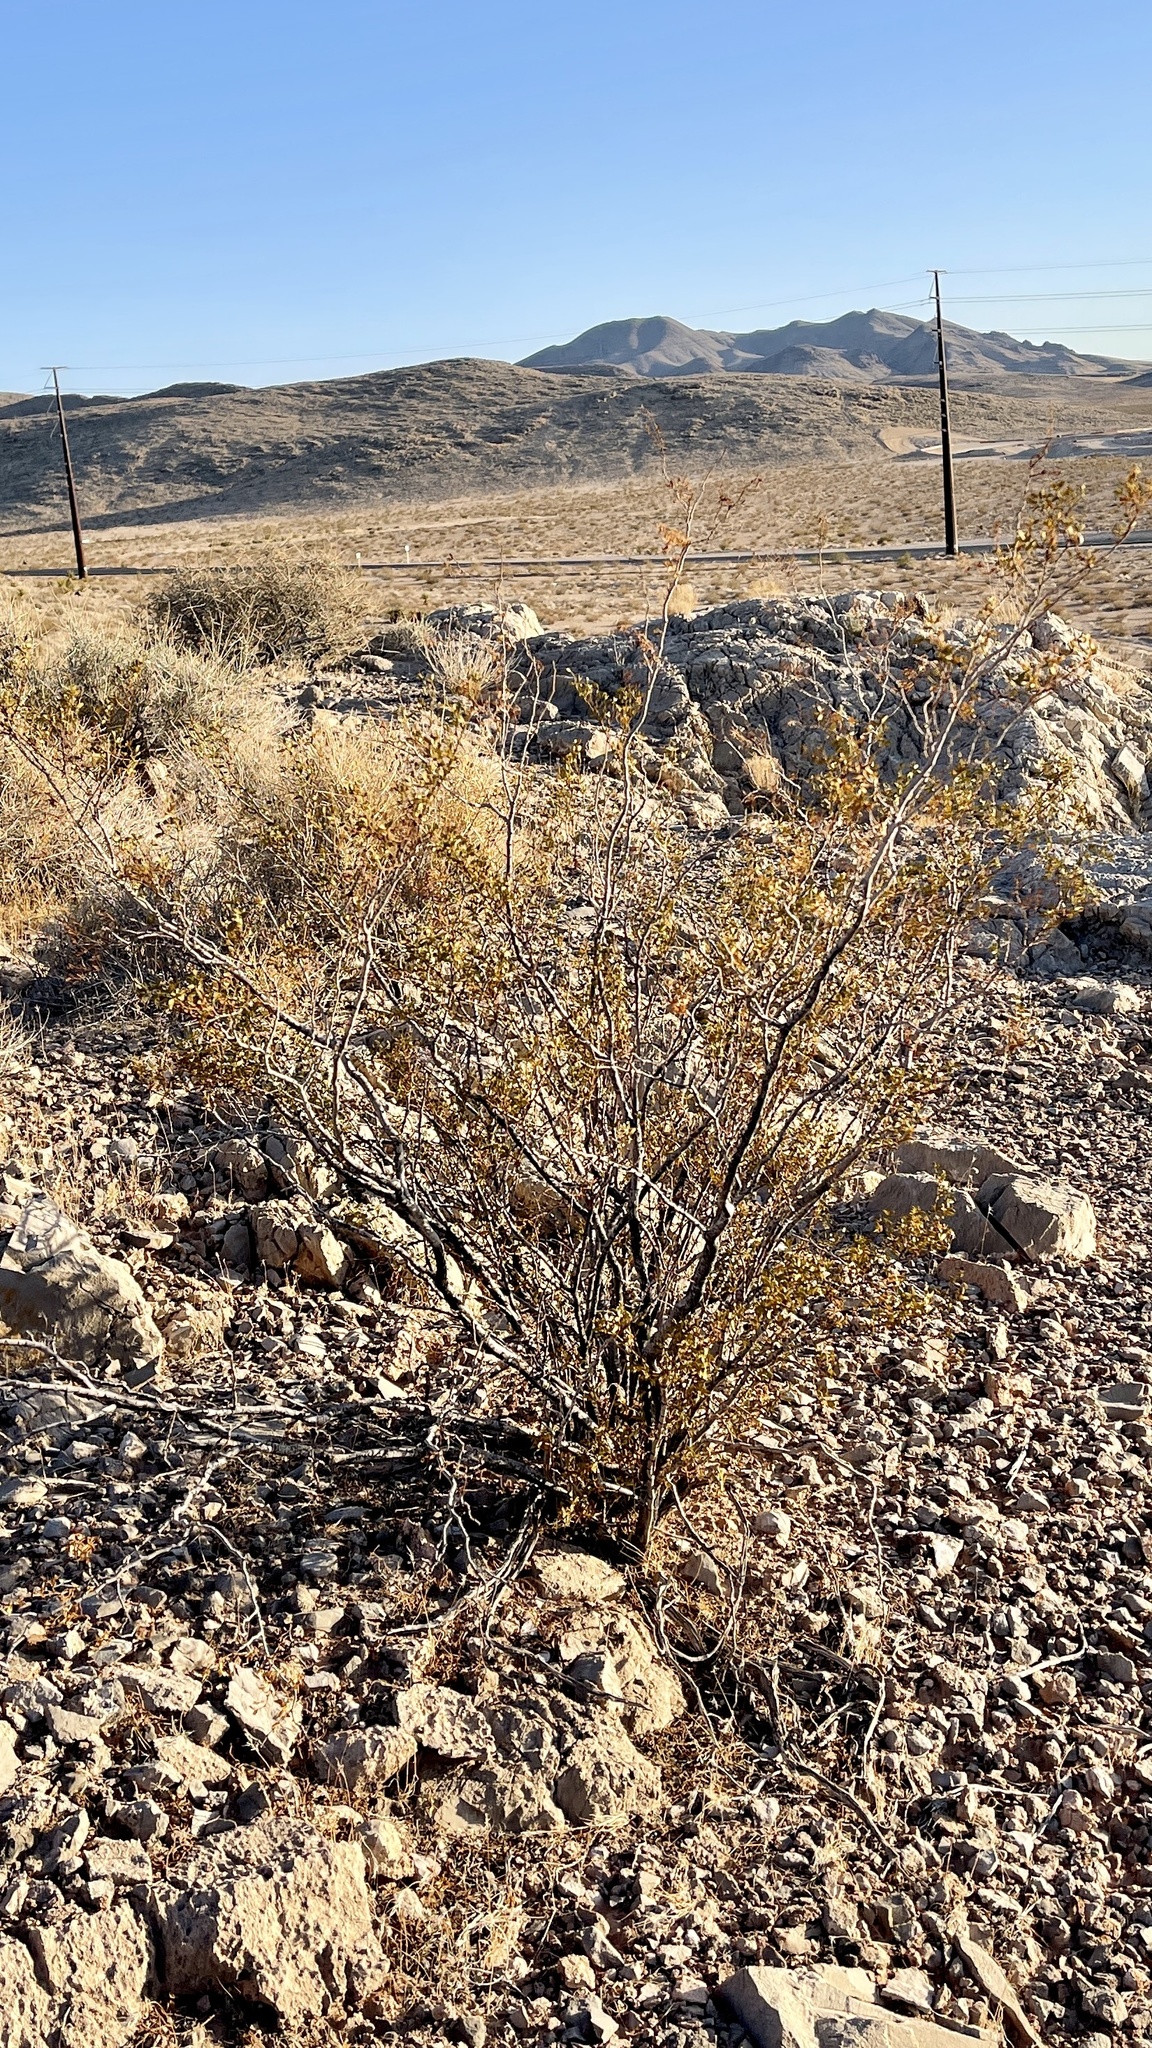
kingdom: Plantae
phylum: Tracheophyta
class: Magnoliopsida
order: Zygophyllales
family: Zygophyllaceae
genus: Larrea
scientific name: Larrea tridentata
